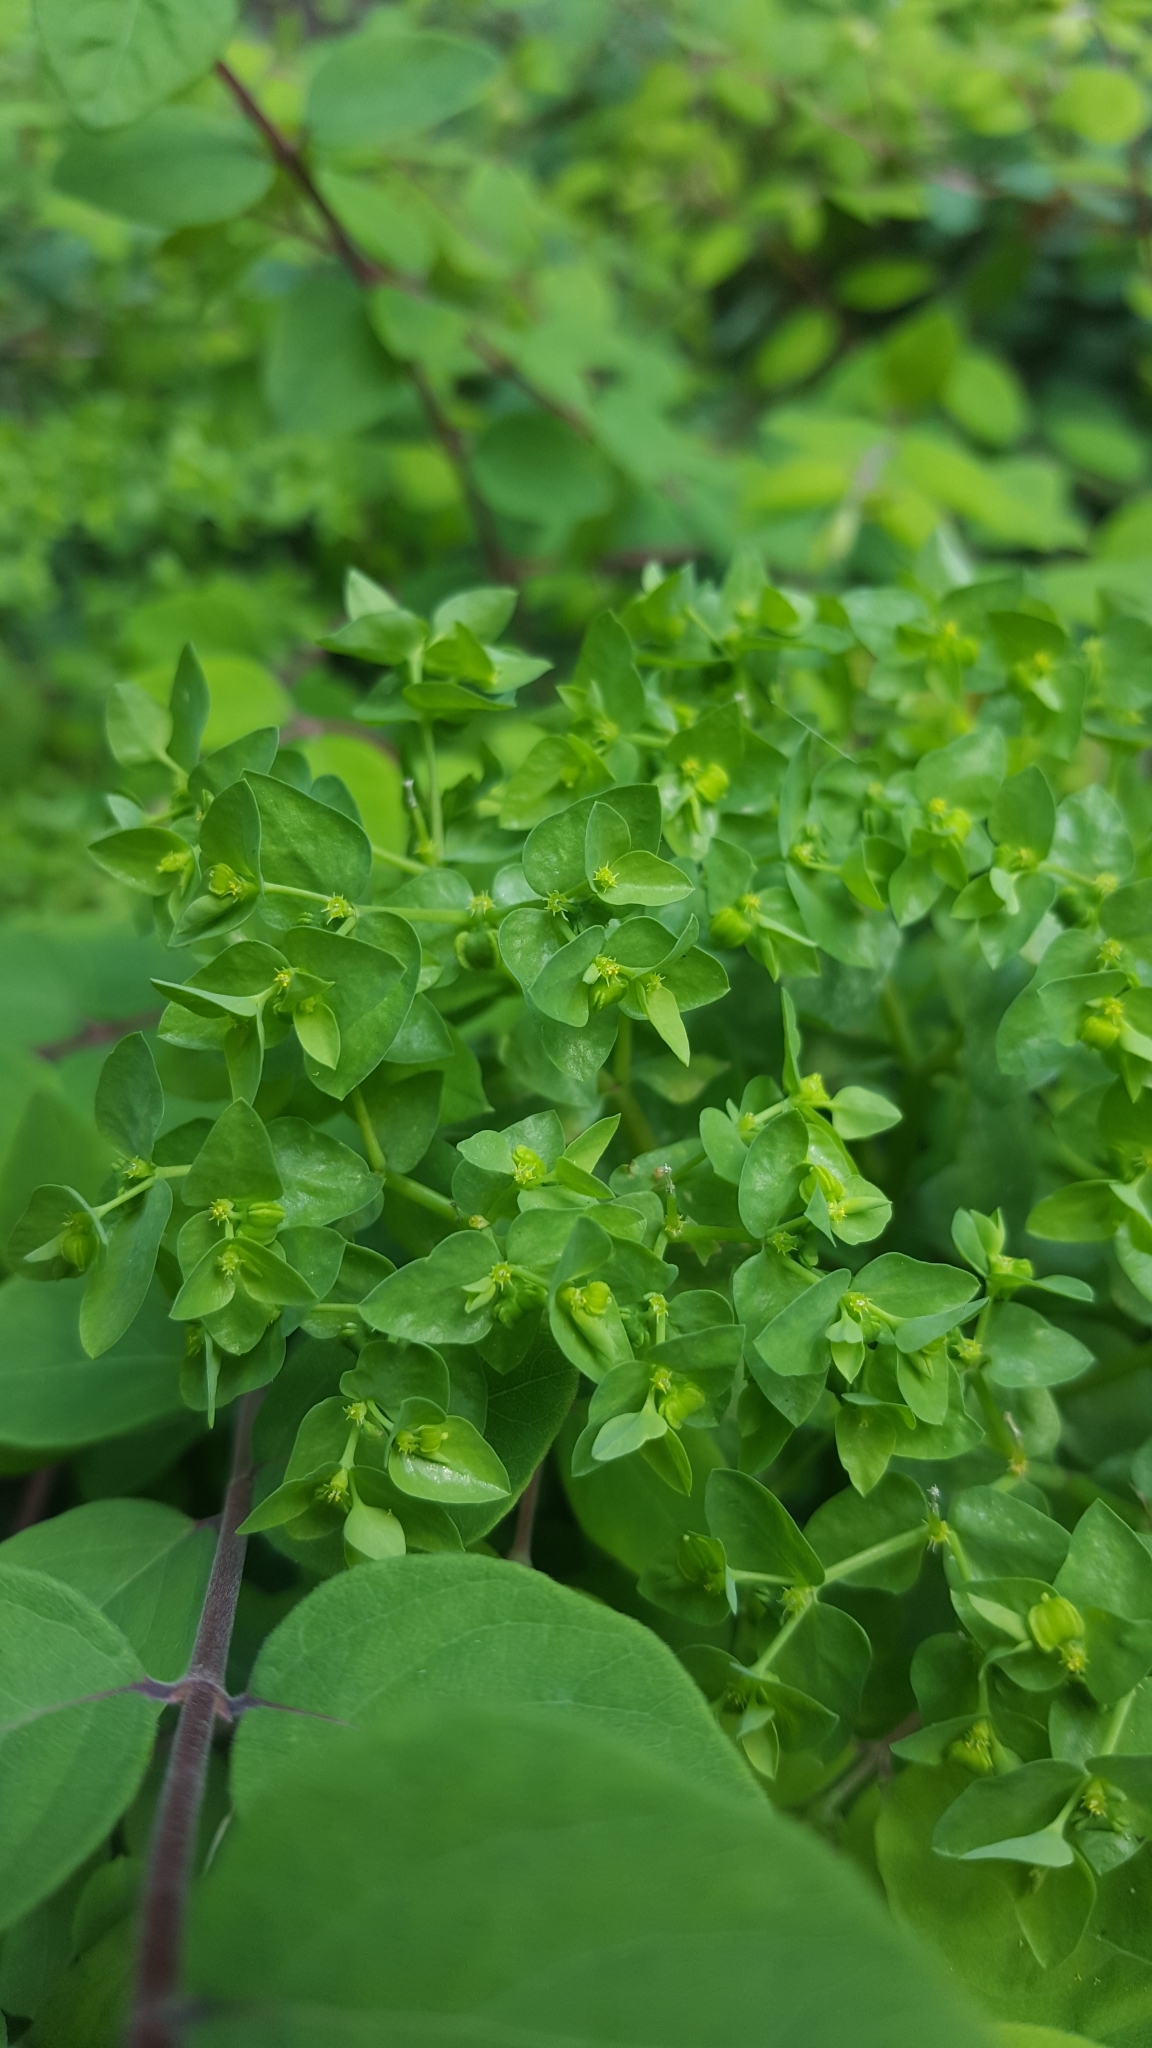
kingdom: Plantae
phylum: Tracheophyta
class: Magnoliopsida
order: Malpighiales
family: Euphorbiaceae
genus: Euphorbia
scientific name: Euphorbia peplus
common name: Petty spurge
